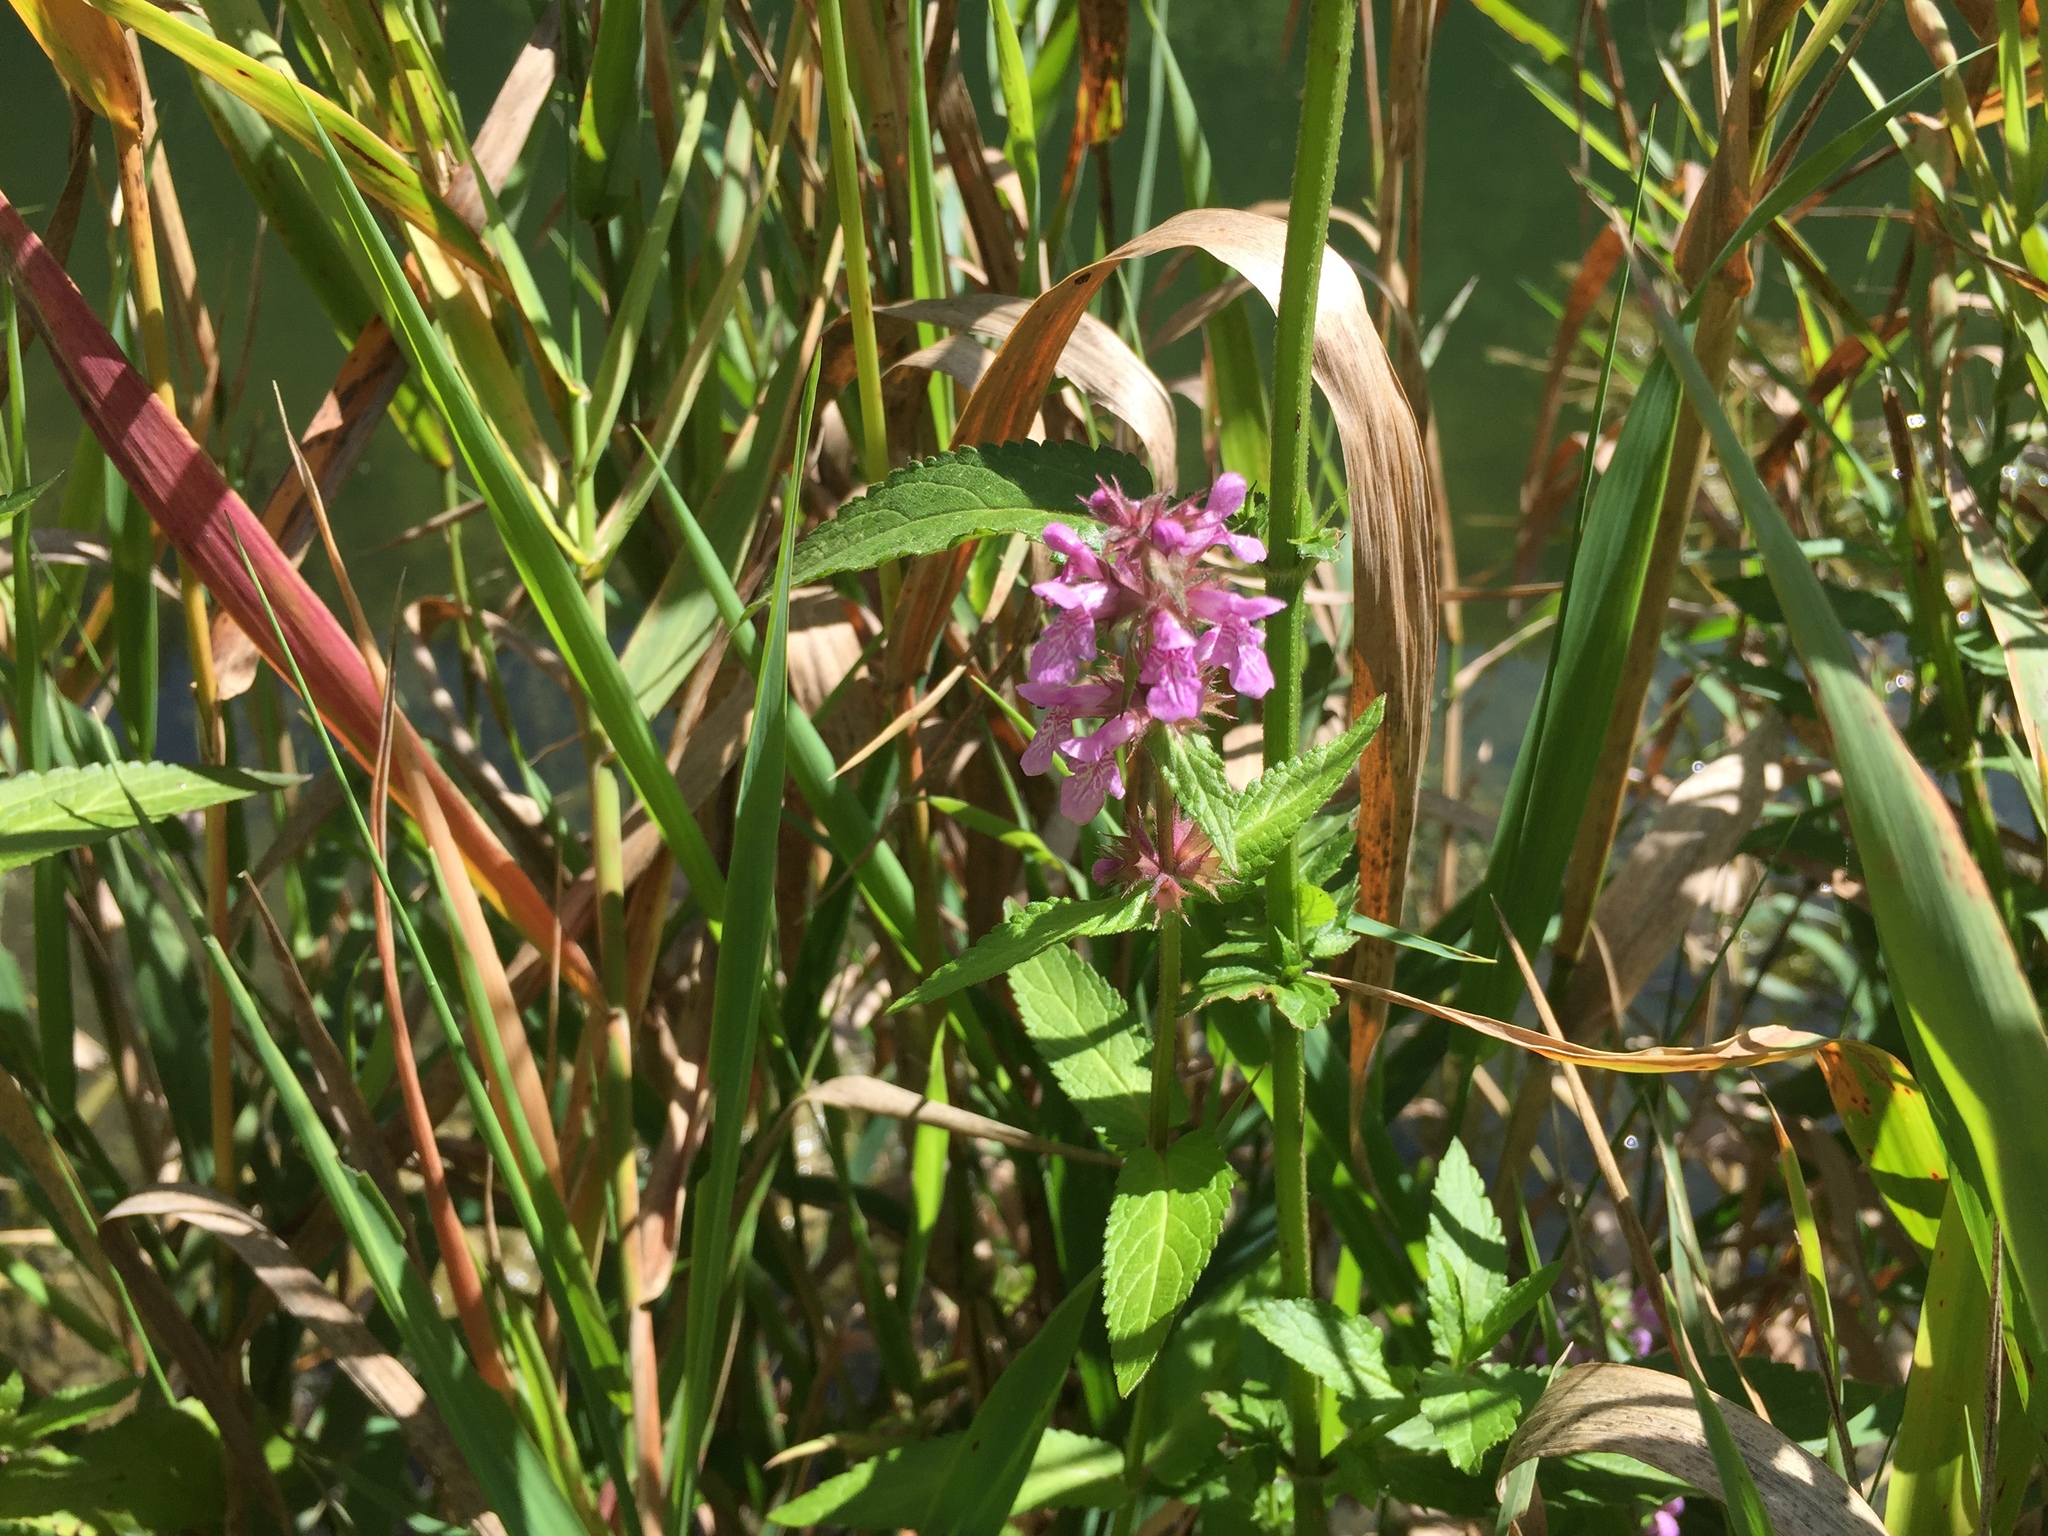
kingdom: Plantae
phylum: Tracheophyta
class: Magnoliopsida
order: Lamiales
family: Lamiaceae
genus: Stachys
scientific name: Stachys palustris
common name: Marsh woundwort
